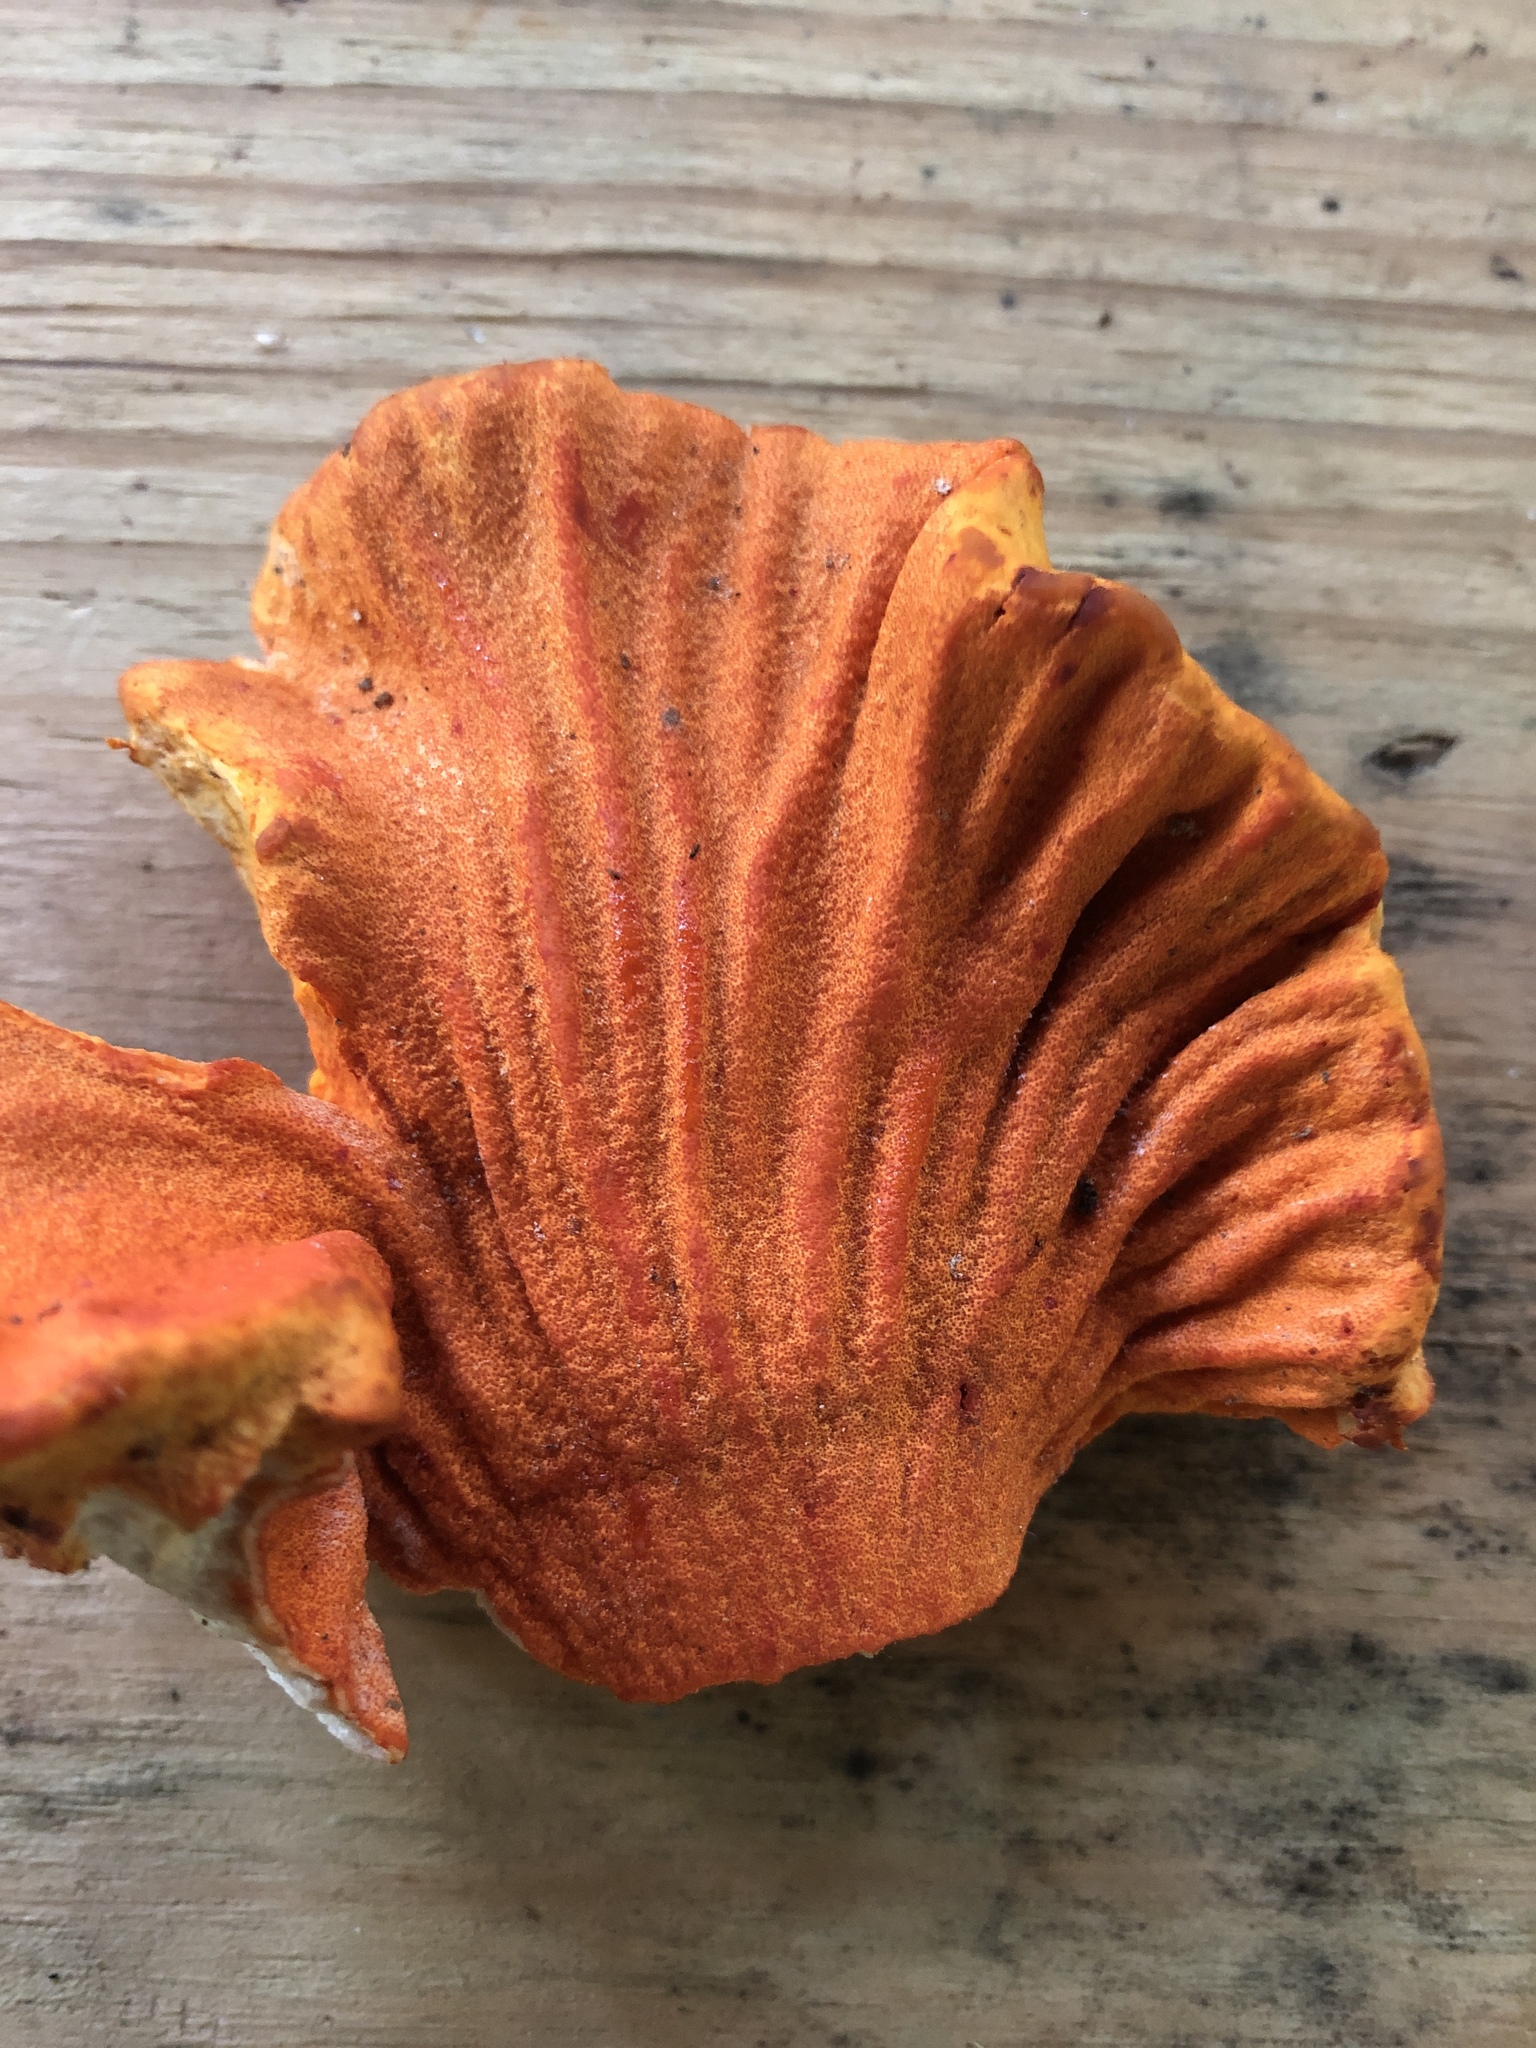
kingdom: Fungi
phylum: Ascomycota
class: Sordariomycetes
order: Hypocreales
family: Hypocreaceae
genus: Hypomyces
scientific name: Hypomyces lactifluorum
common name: Lobster mushroom
